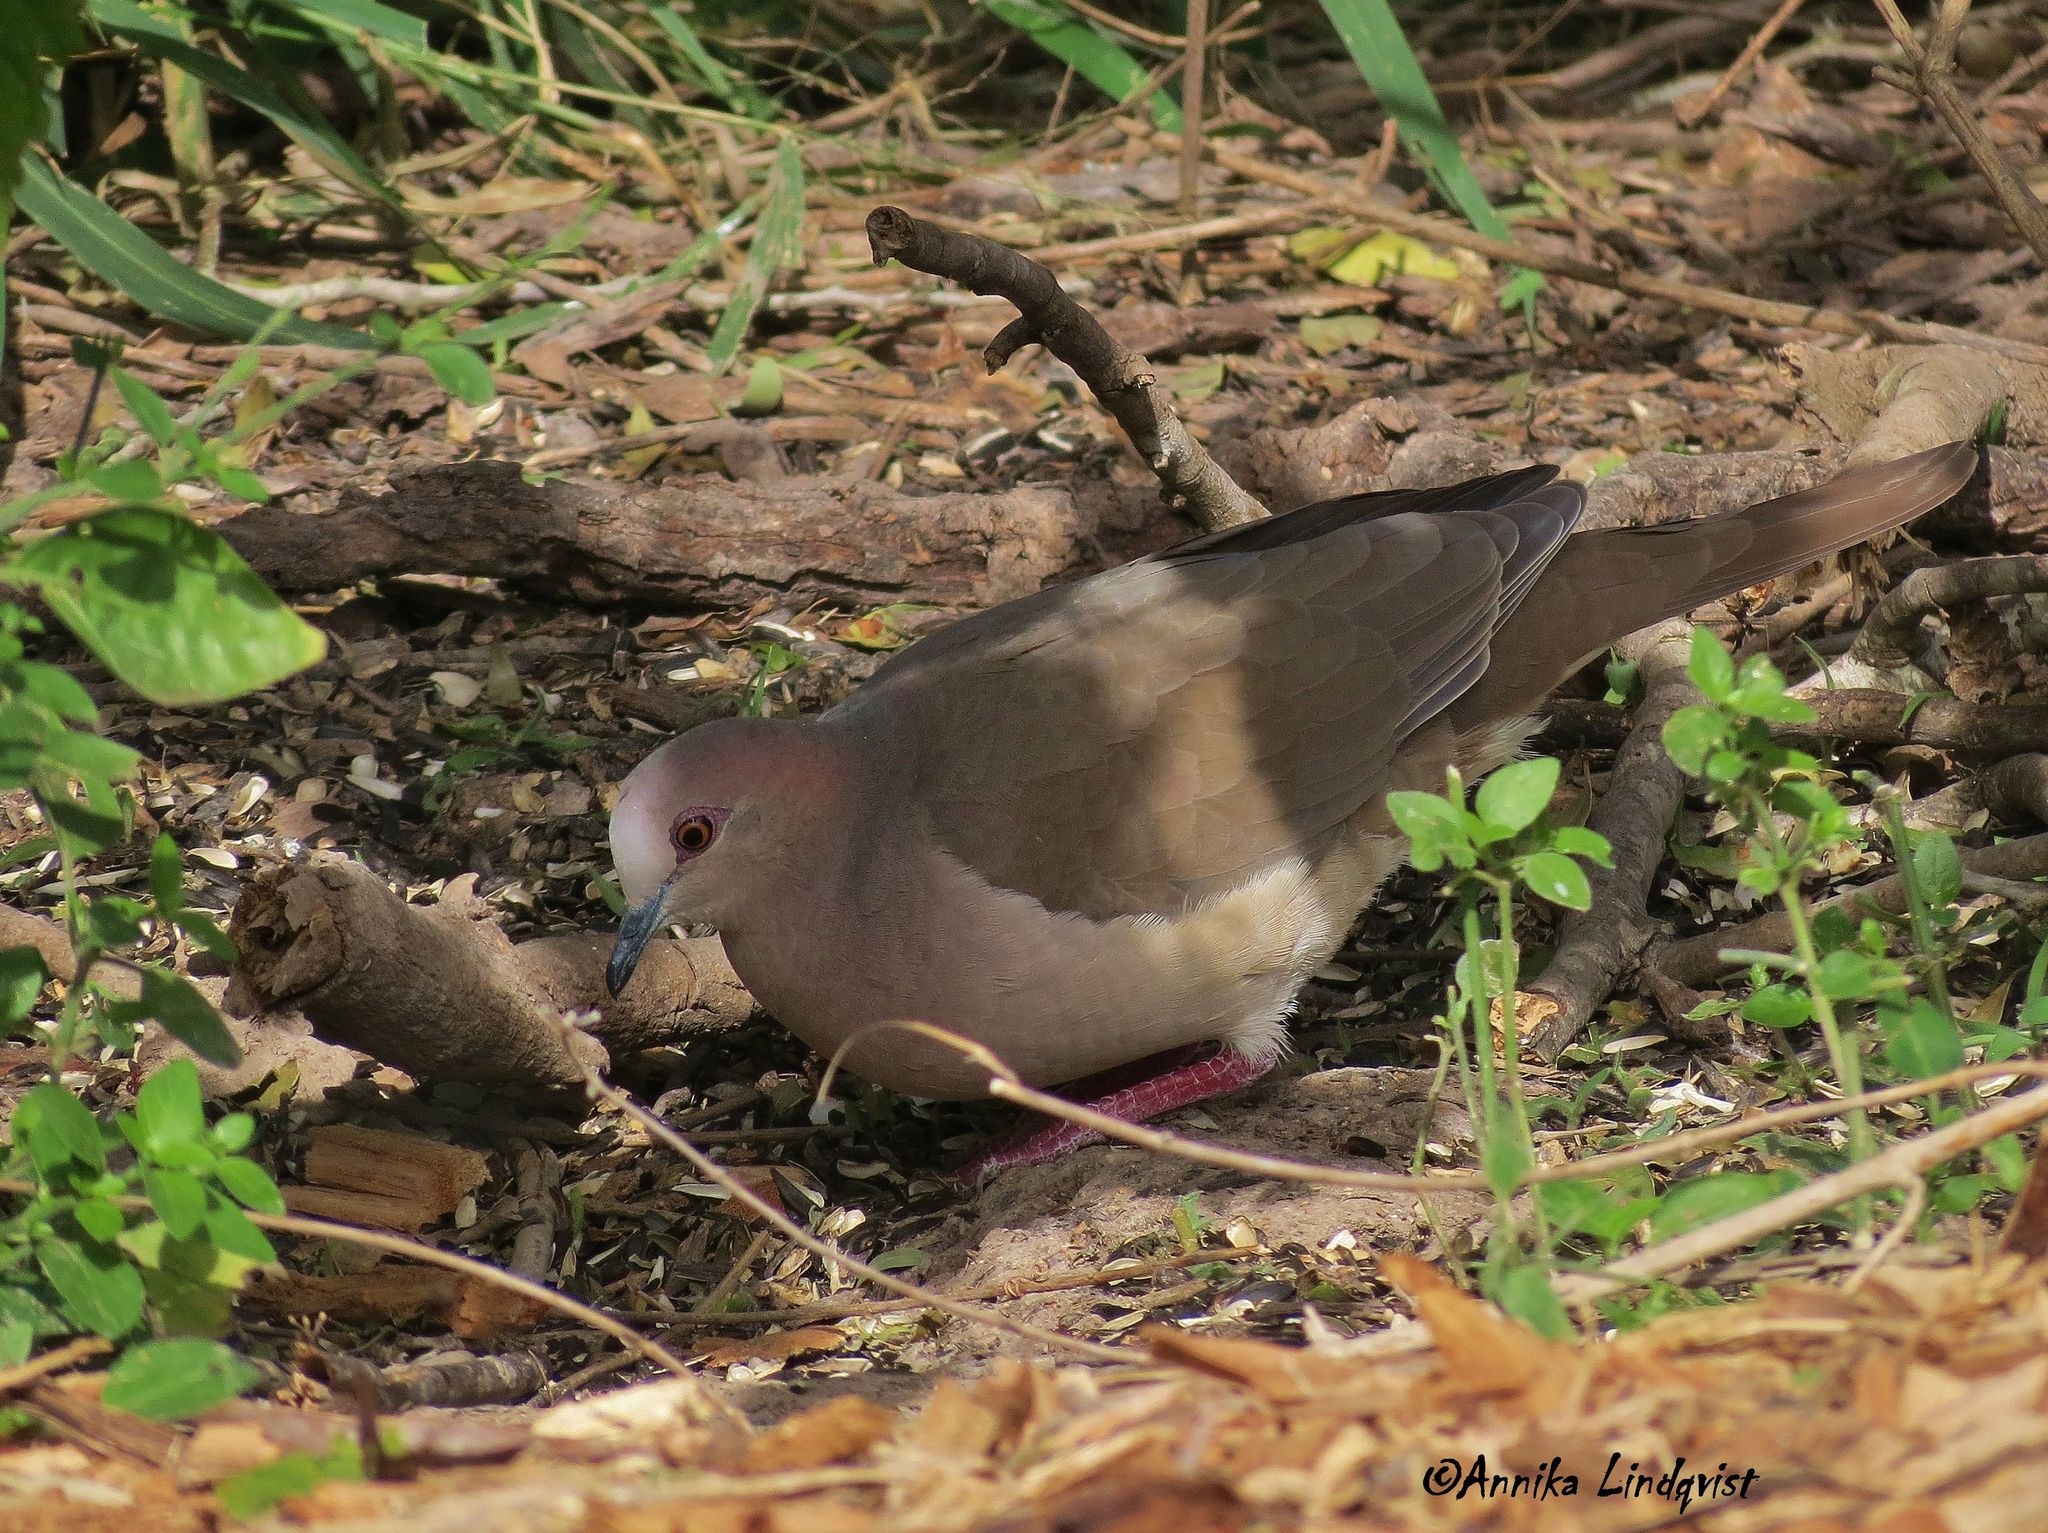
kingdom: Animalia
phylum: Chordata
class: Aves
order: Columbiformes
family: Columbidae
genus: Leptotila
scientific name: Leptotila verreauxi
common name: White-tipped dove
